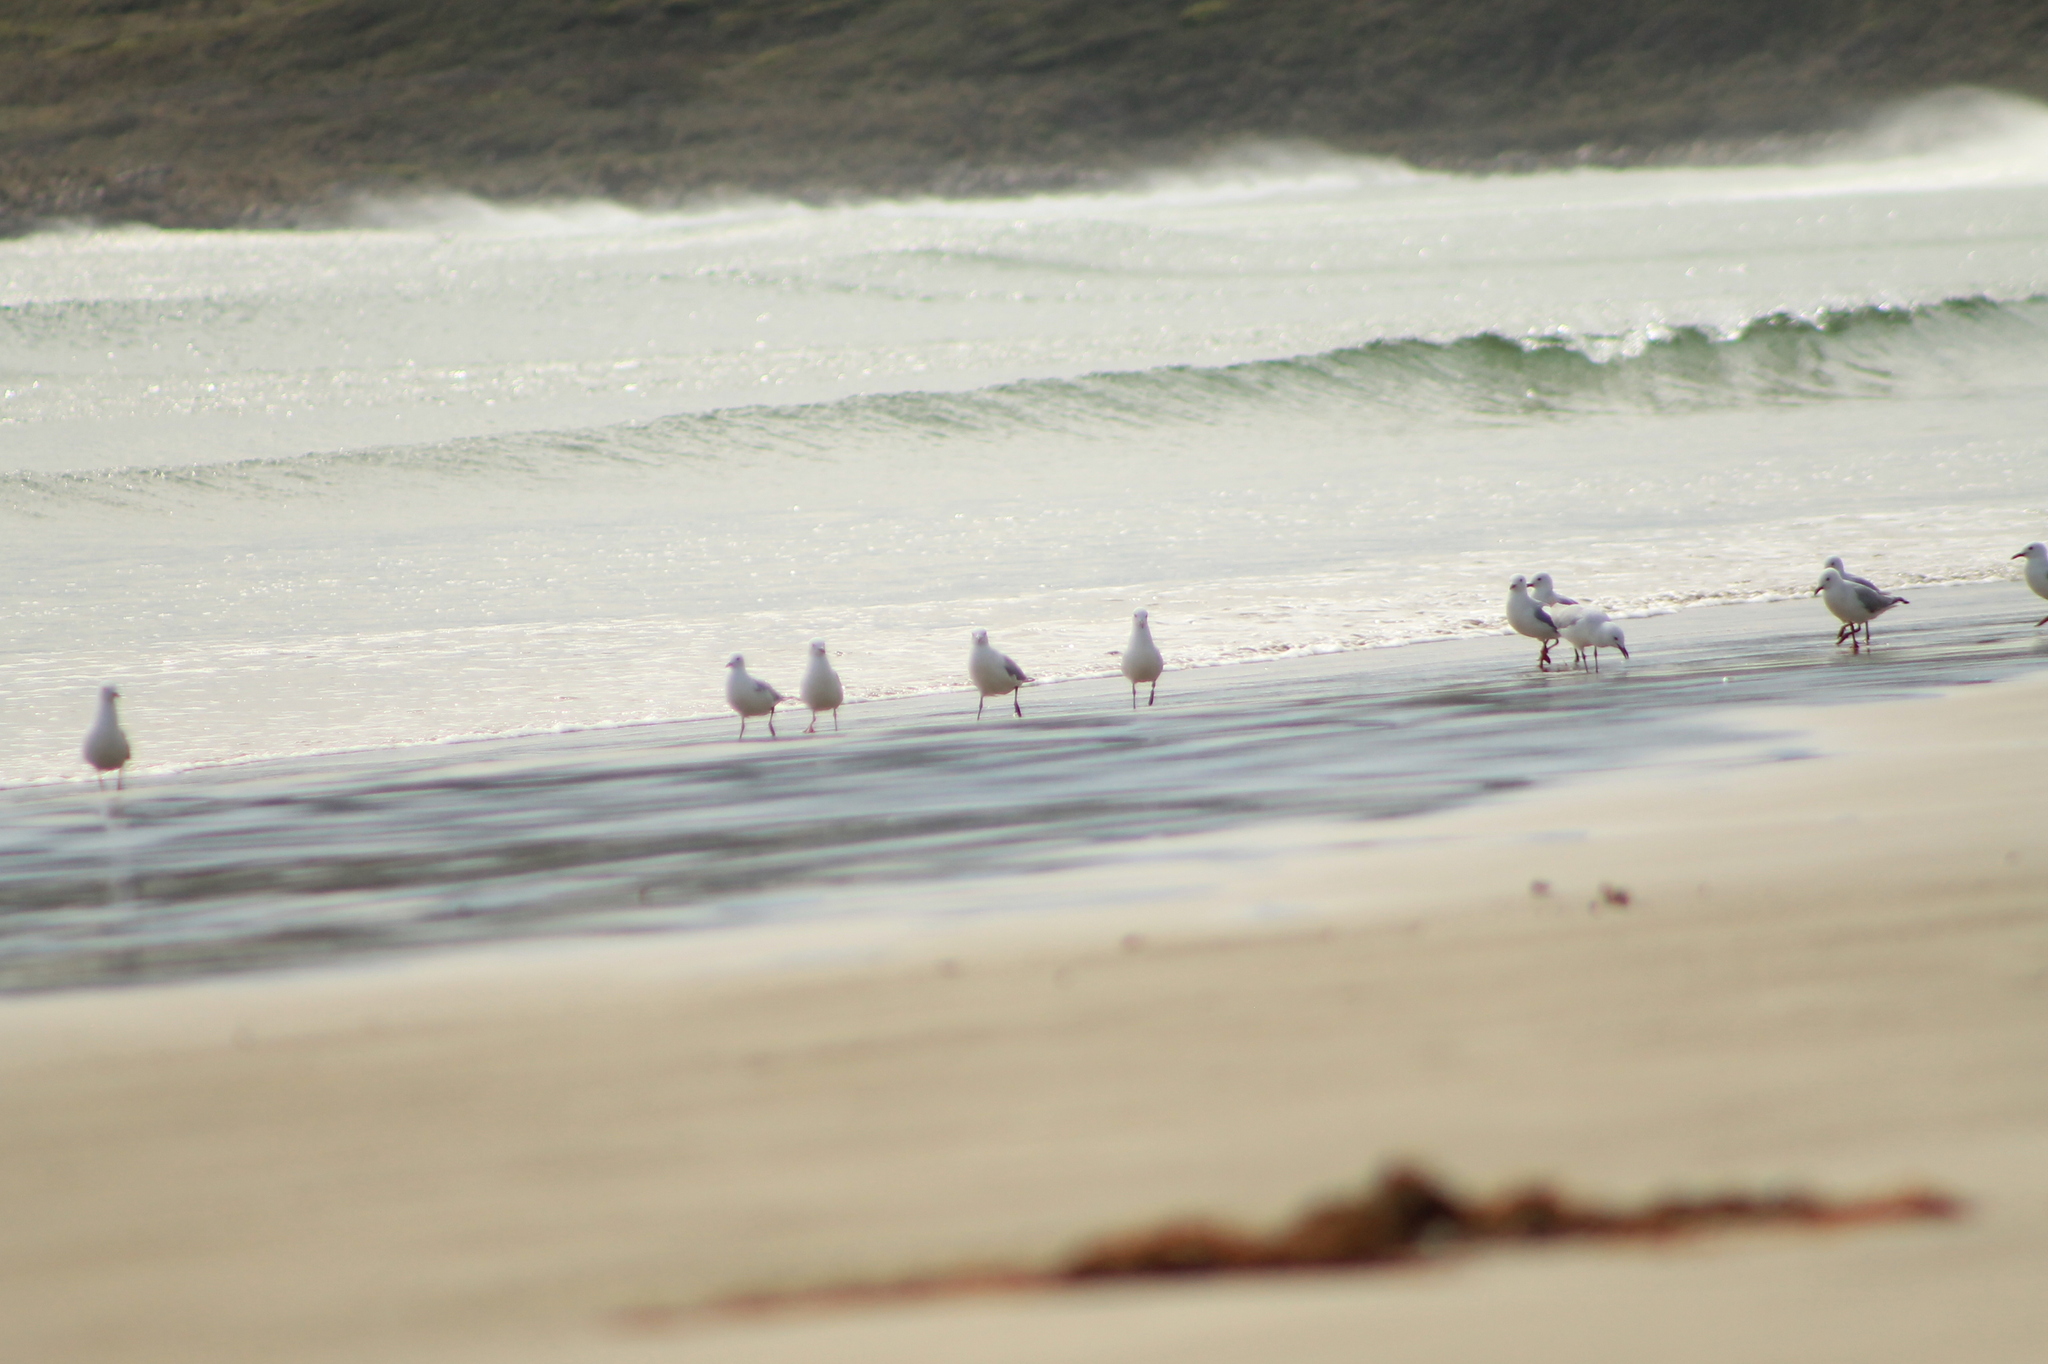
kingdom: Animalia
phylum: Chordata
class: Aves
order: Charadriiformes
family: Laridae
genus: Chroicocephalus
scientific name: Chroicocephalus novaehollandiae
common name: Silver gull
